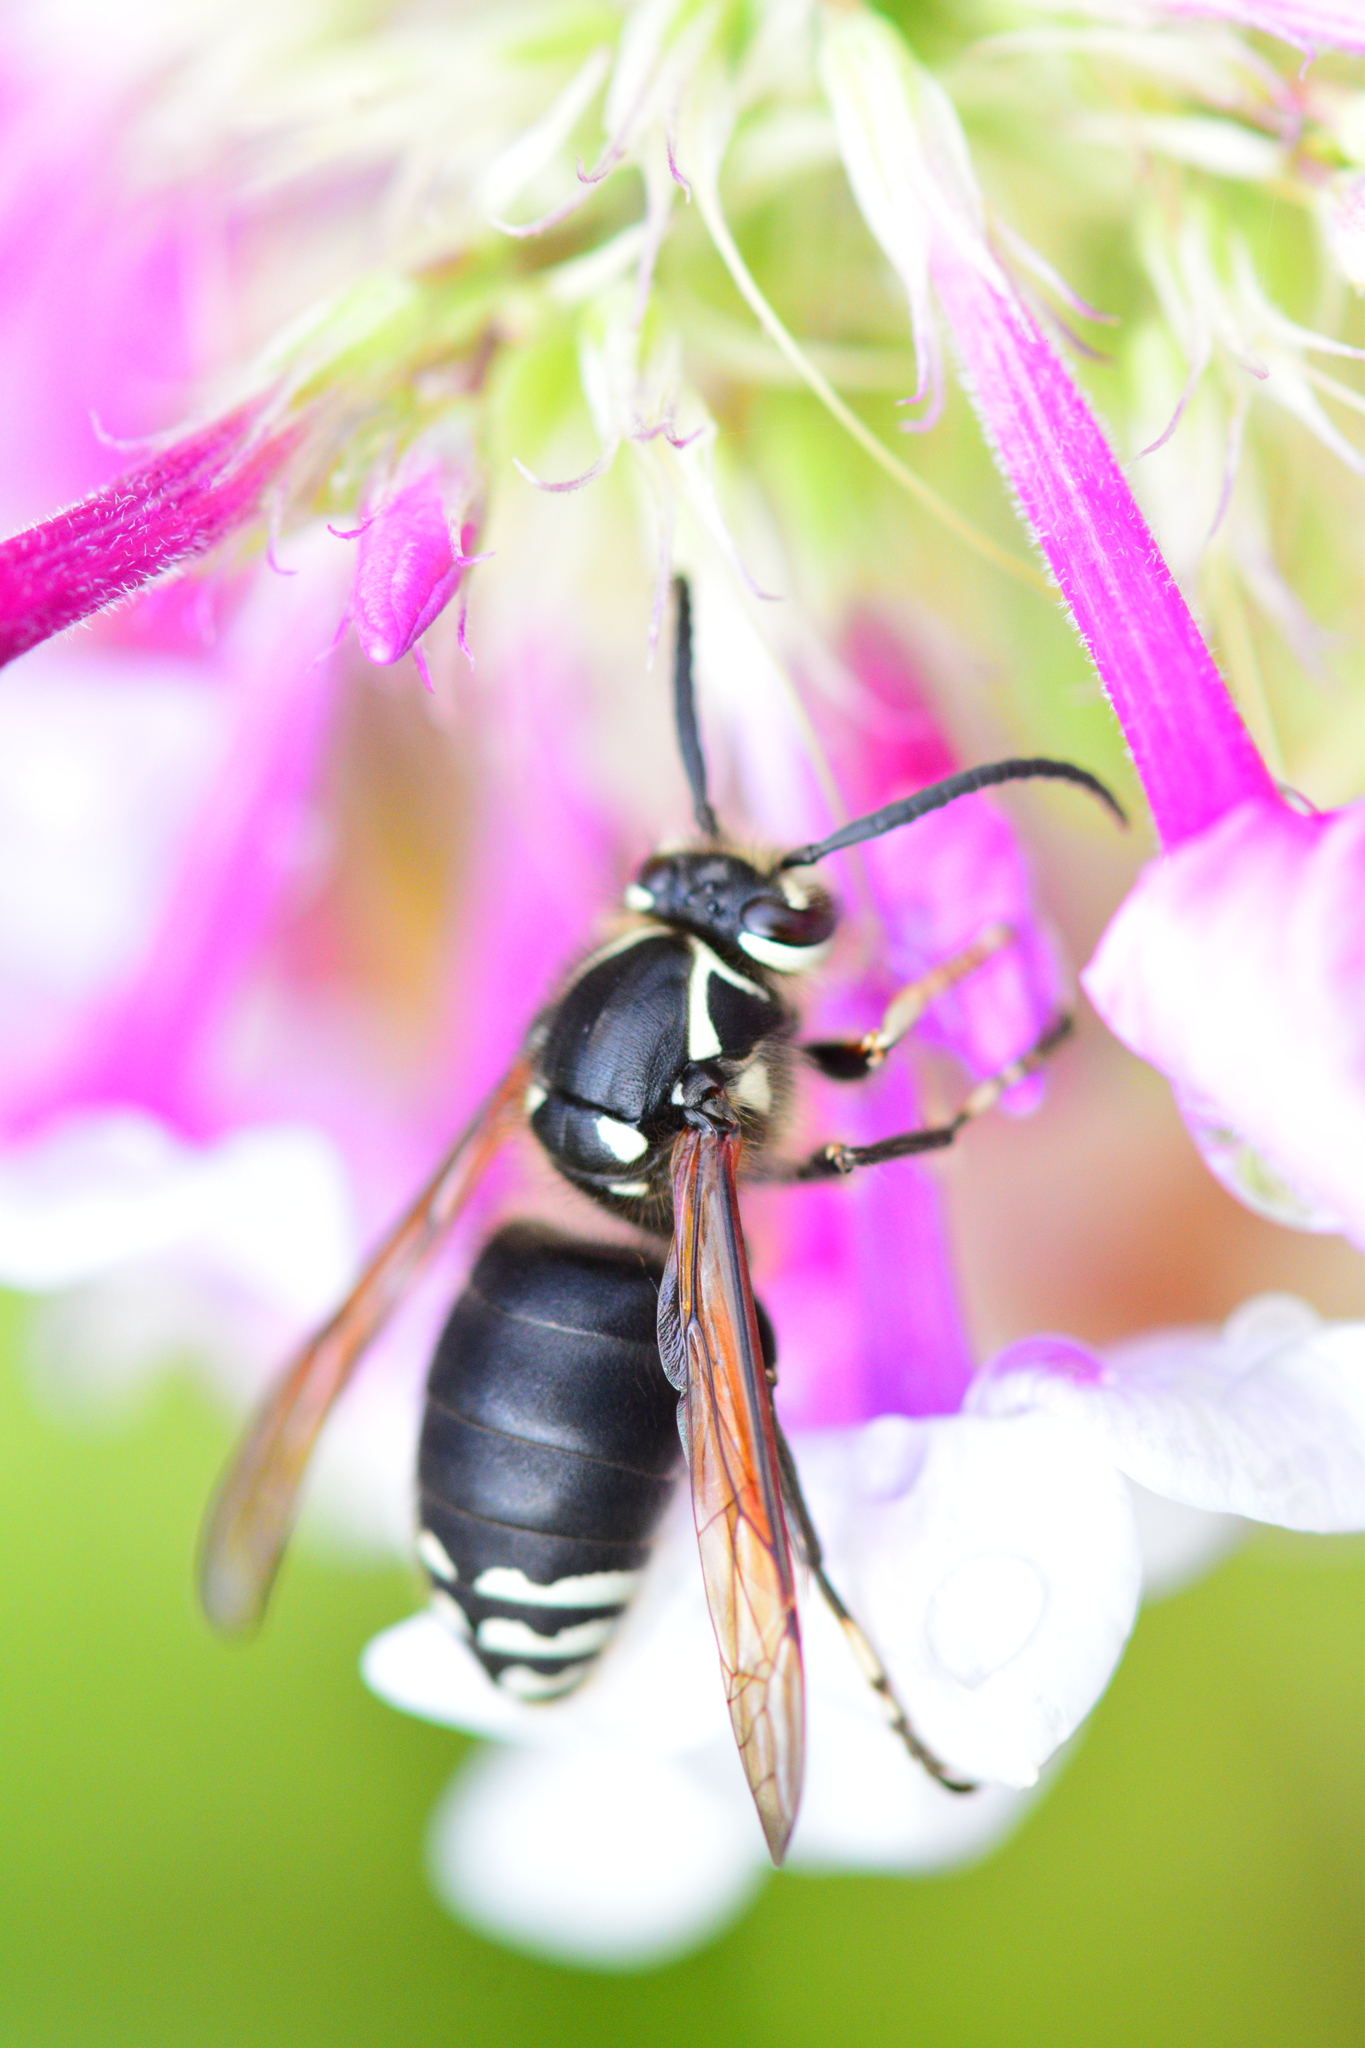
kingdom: Animalia
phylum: Arthropoda
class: Insecta
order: Hymenoptera
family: Vespidae
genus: Dolichovespula
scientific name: Dolichovespula maculata
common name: Bald-faced hornet
